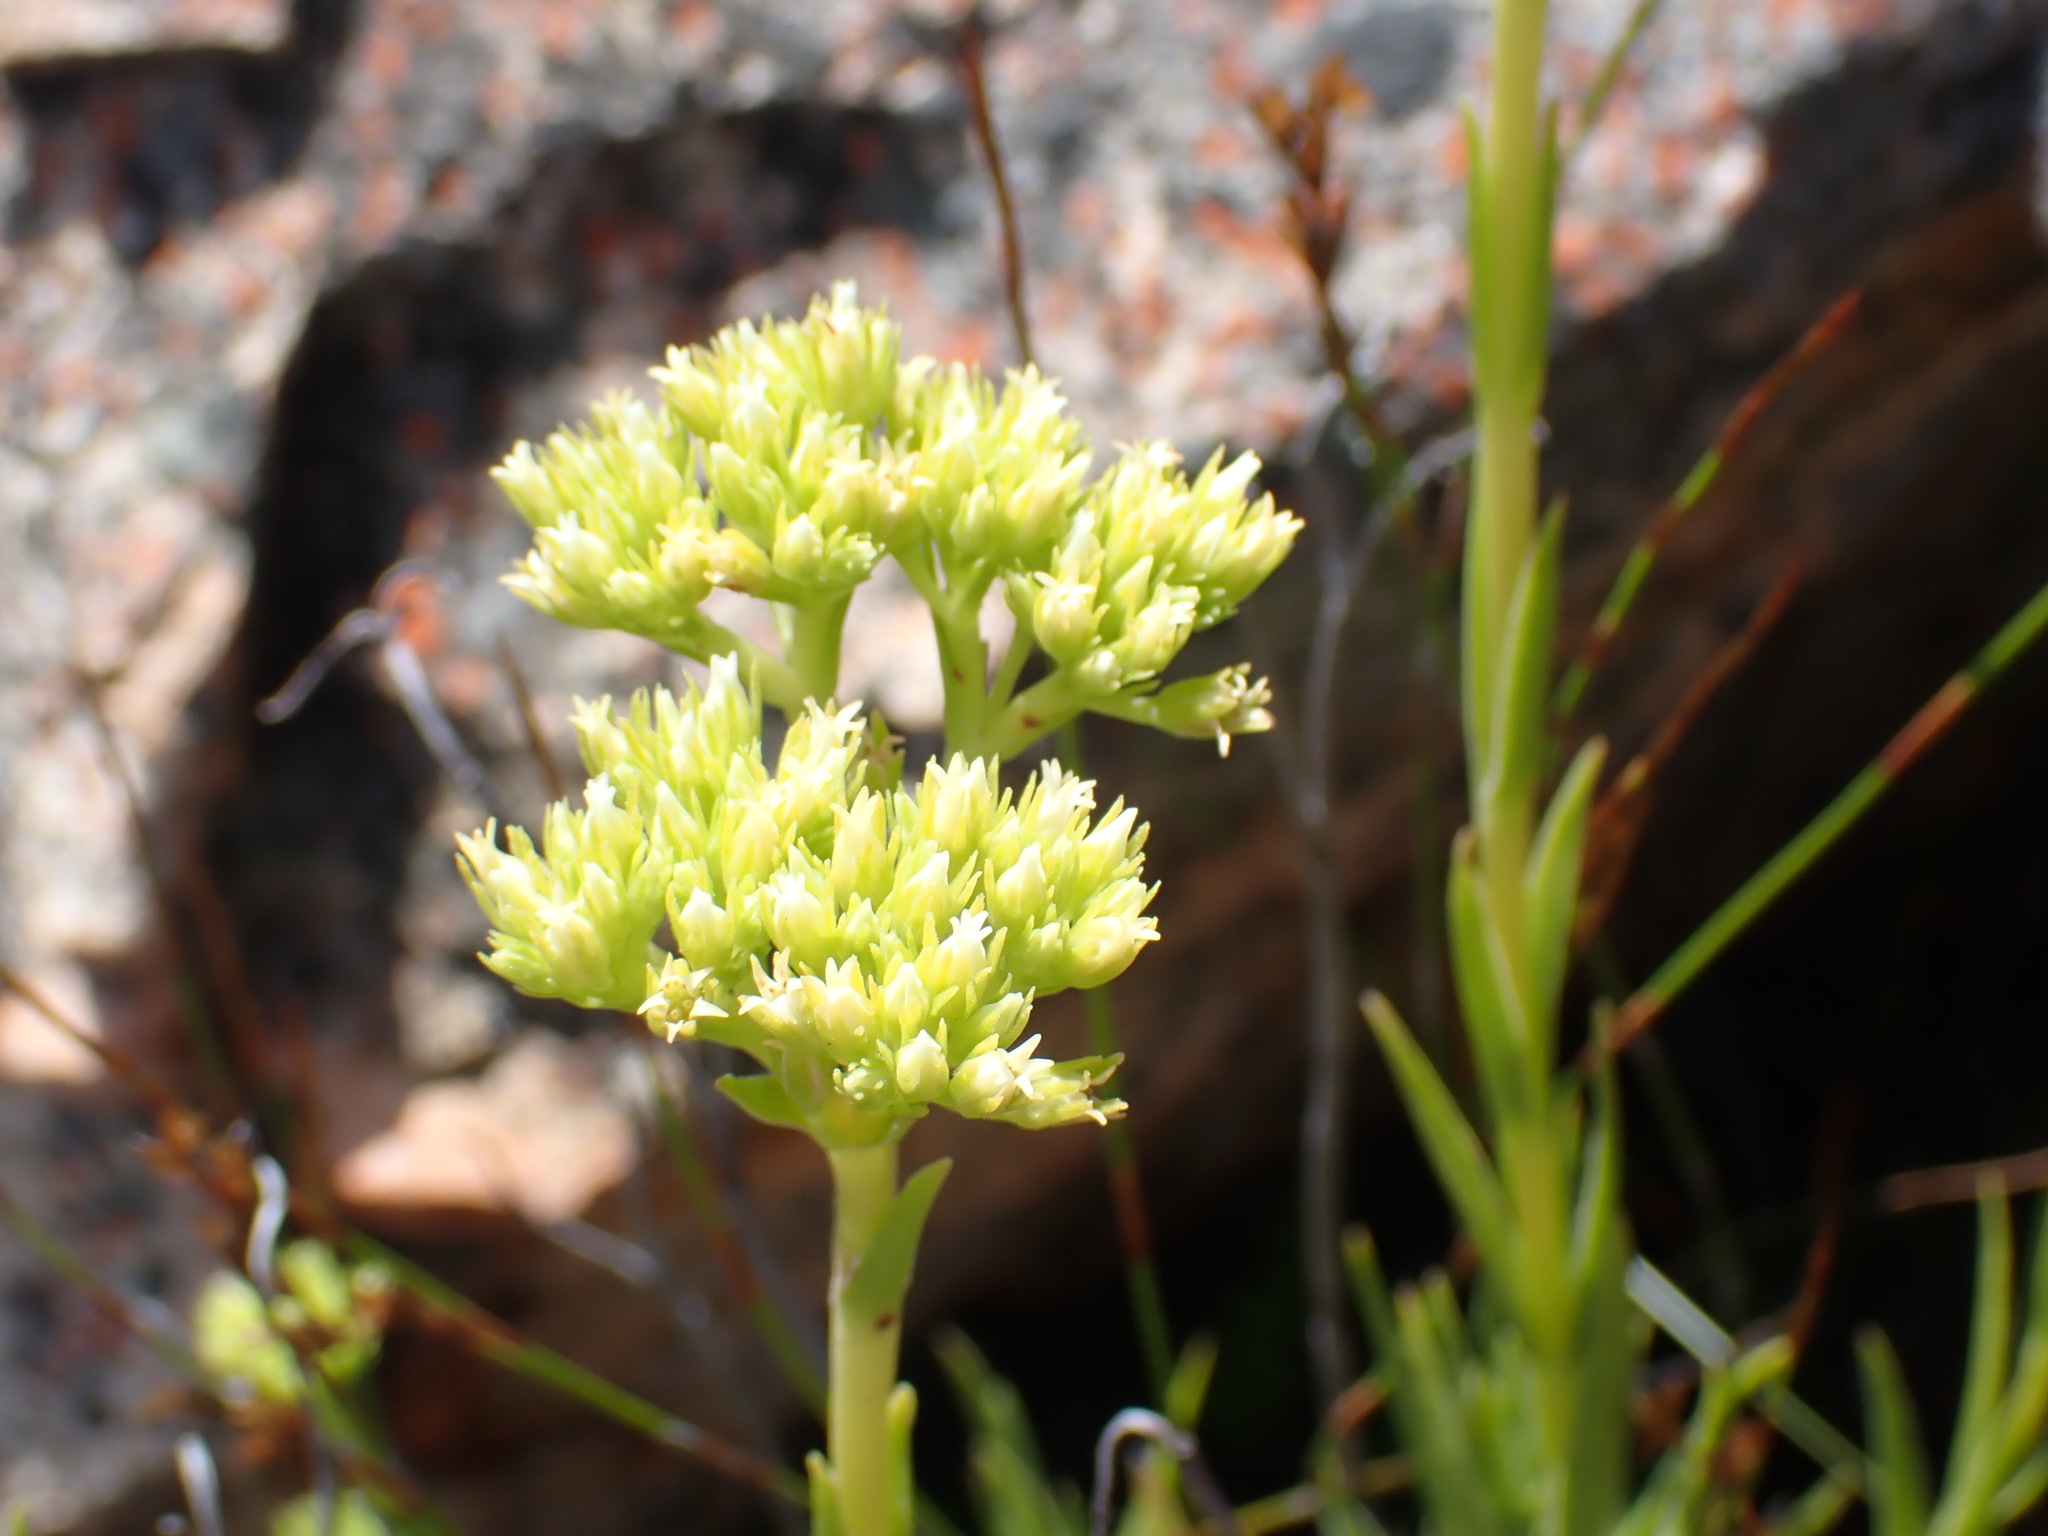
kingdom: Plantae
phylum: Tracheophyta
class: Magnoliopsida
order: Saxifragales
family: Crassulaceae
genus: Crassula
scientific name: Crassula subulata
